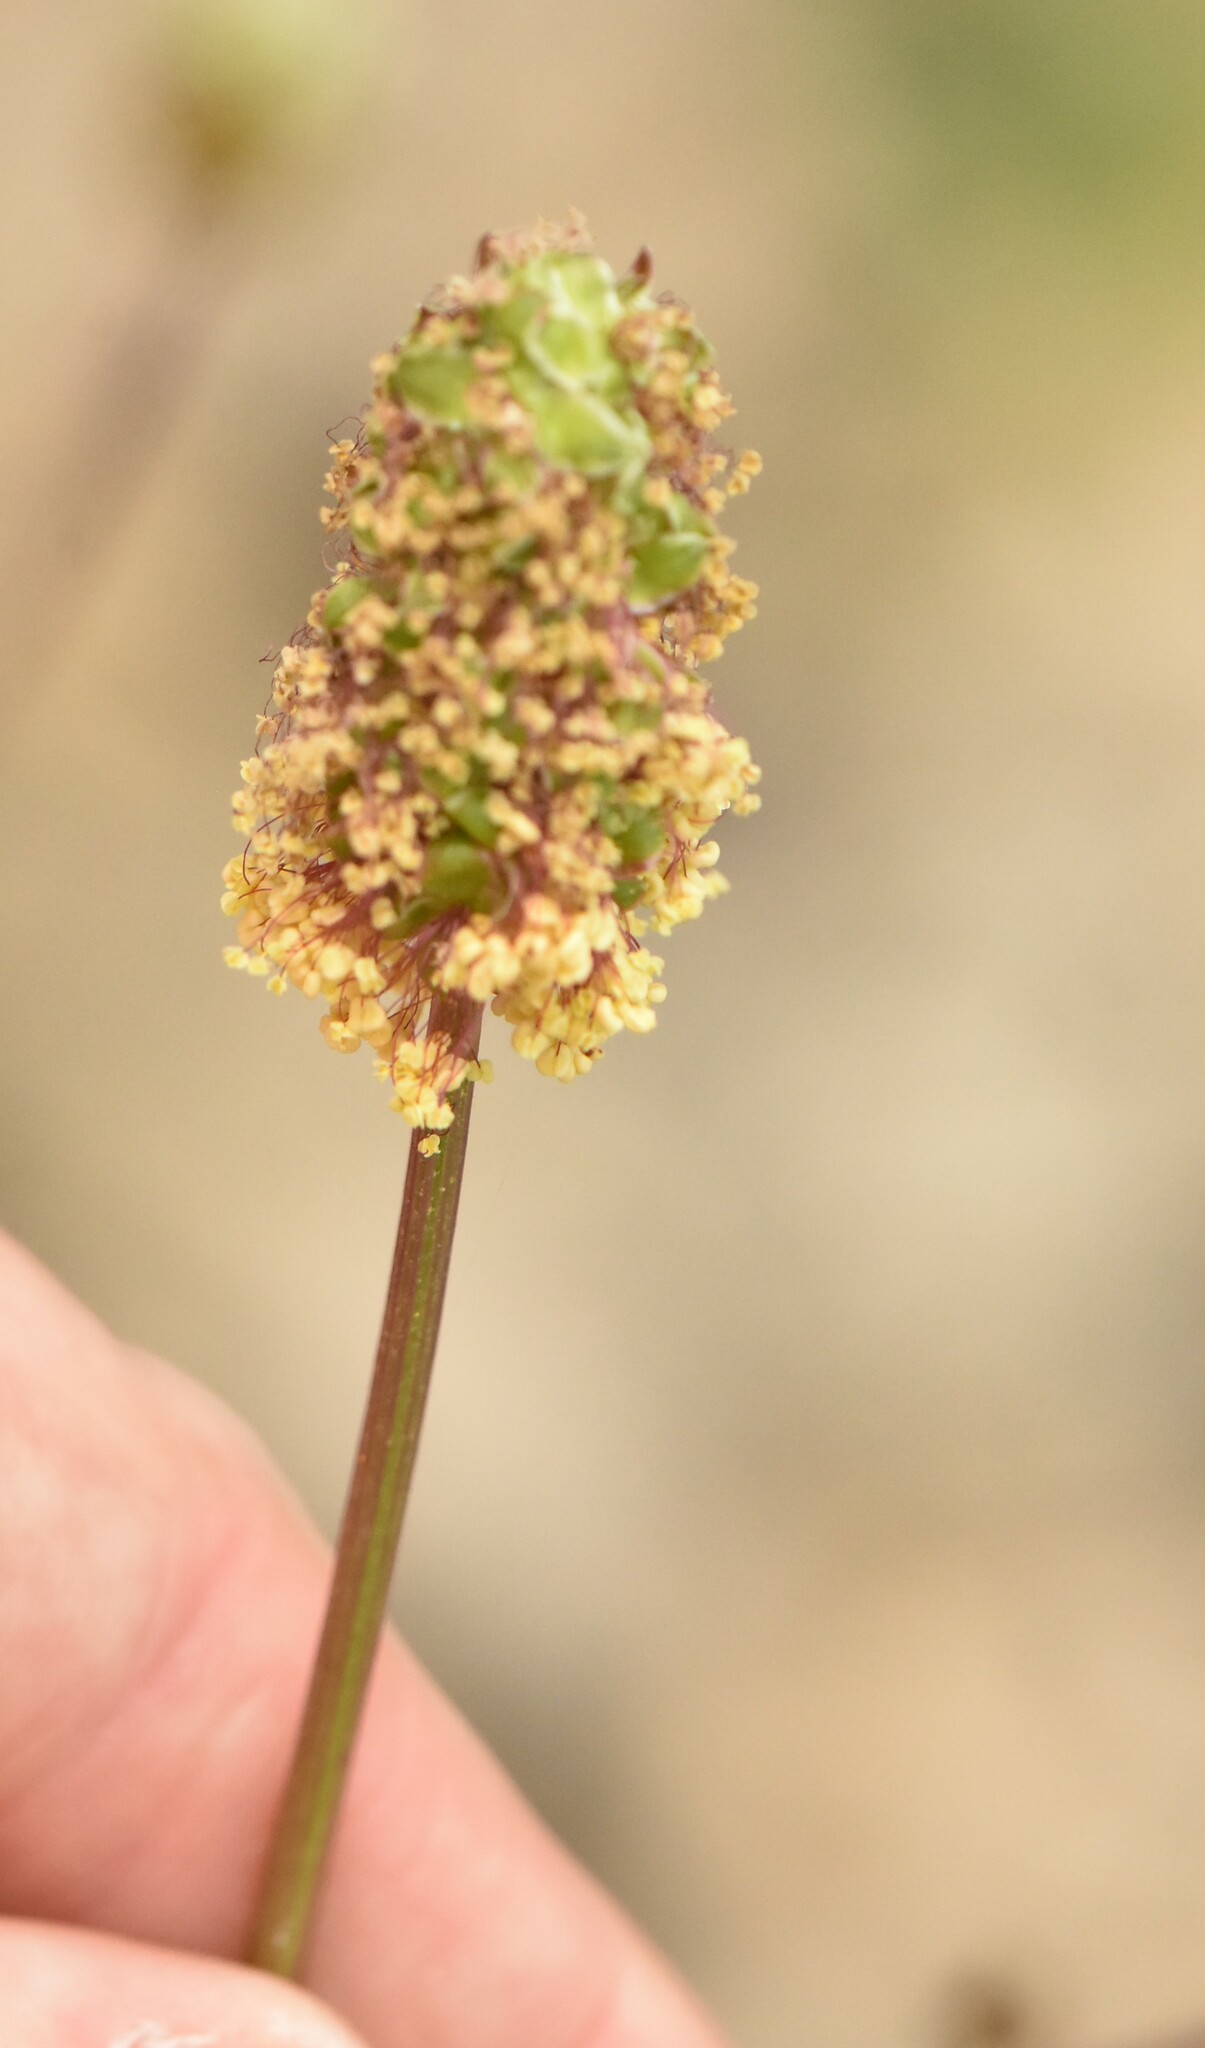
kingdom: Plantae
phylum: Tracheophyta
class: Magnoliopsida
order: Rosales
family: Rosaceae
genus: Poterium
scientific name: Poterium sanguisorba
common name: Salad burnet
